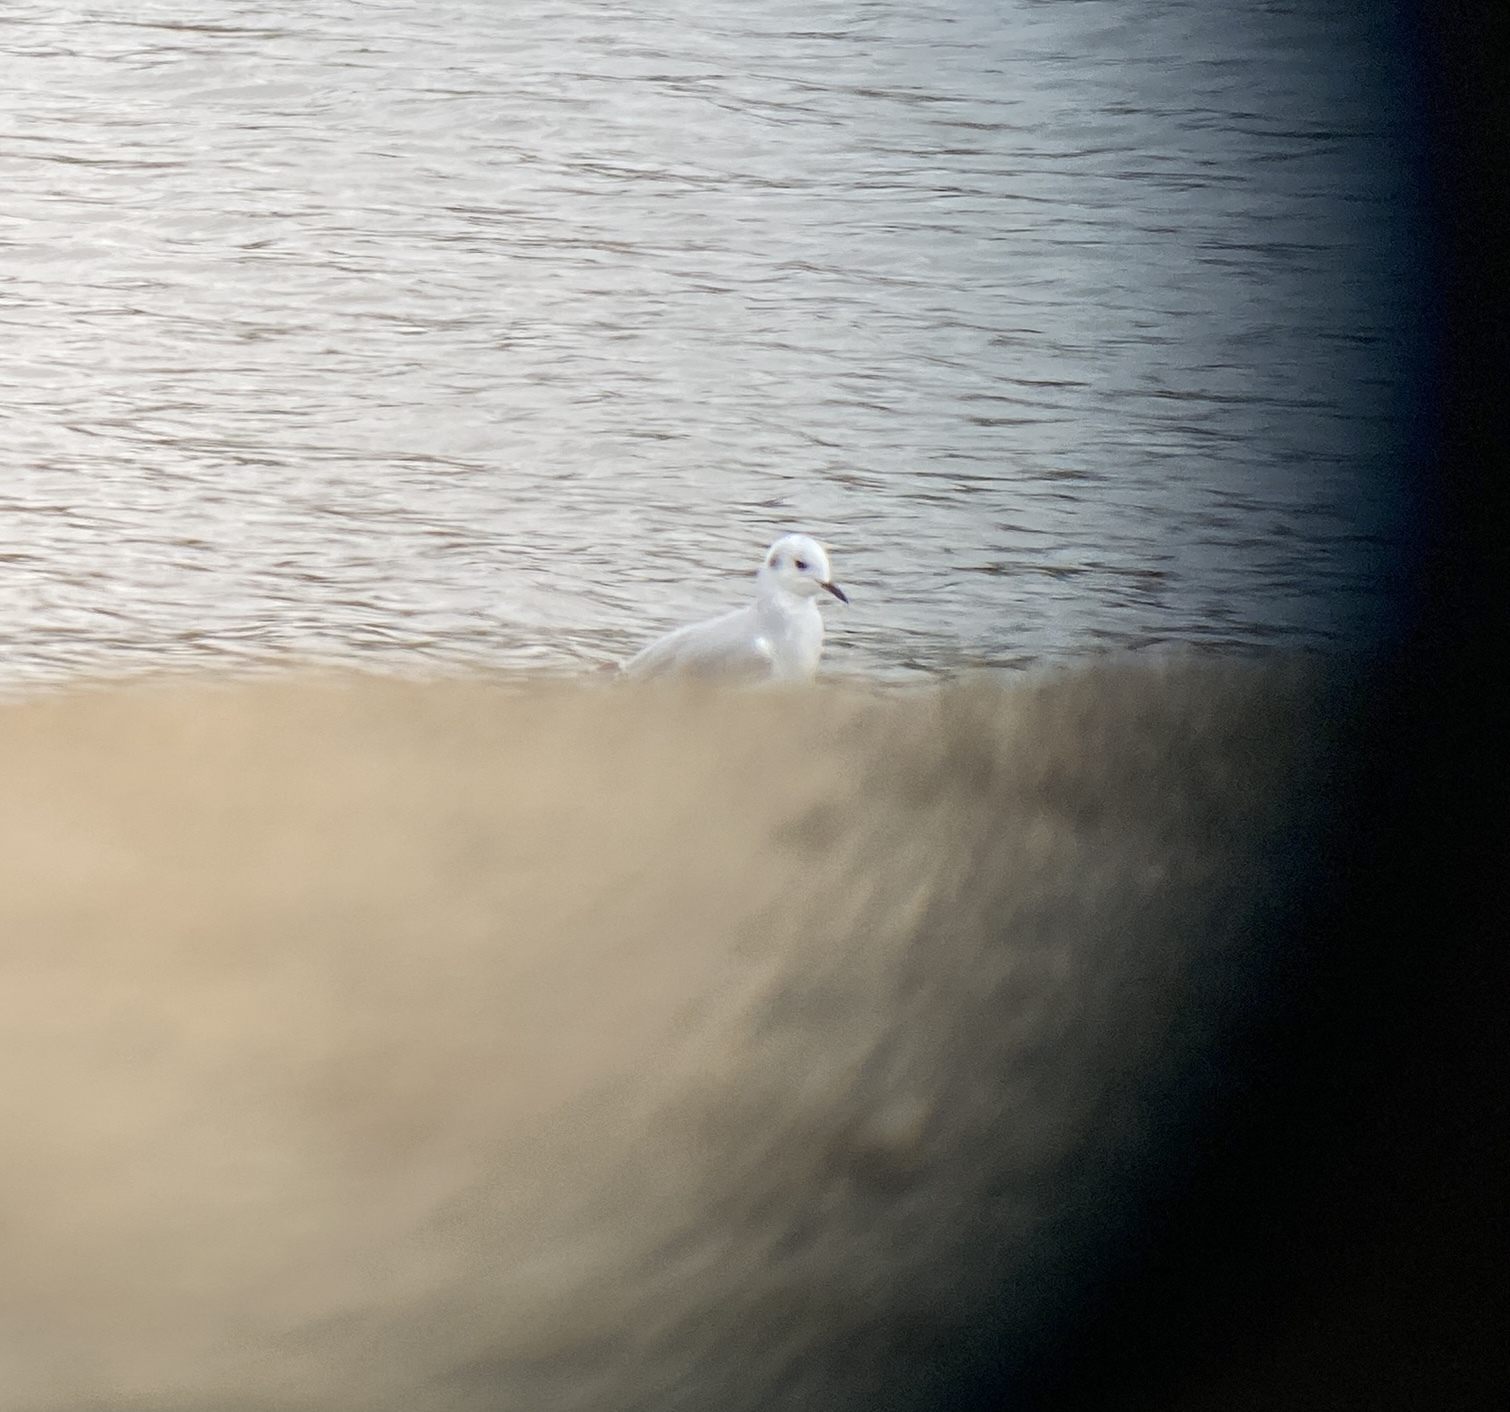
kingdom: Animalia
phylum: Chordata
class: Aves
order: Charadriiformes
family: Laridae
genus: Chroicocephalus
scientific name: Chroicocephalus philadelphia
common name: Bonaparte's gull
